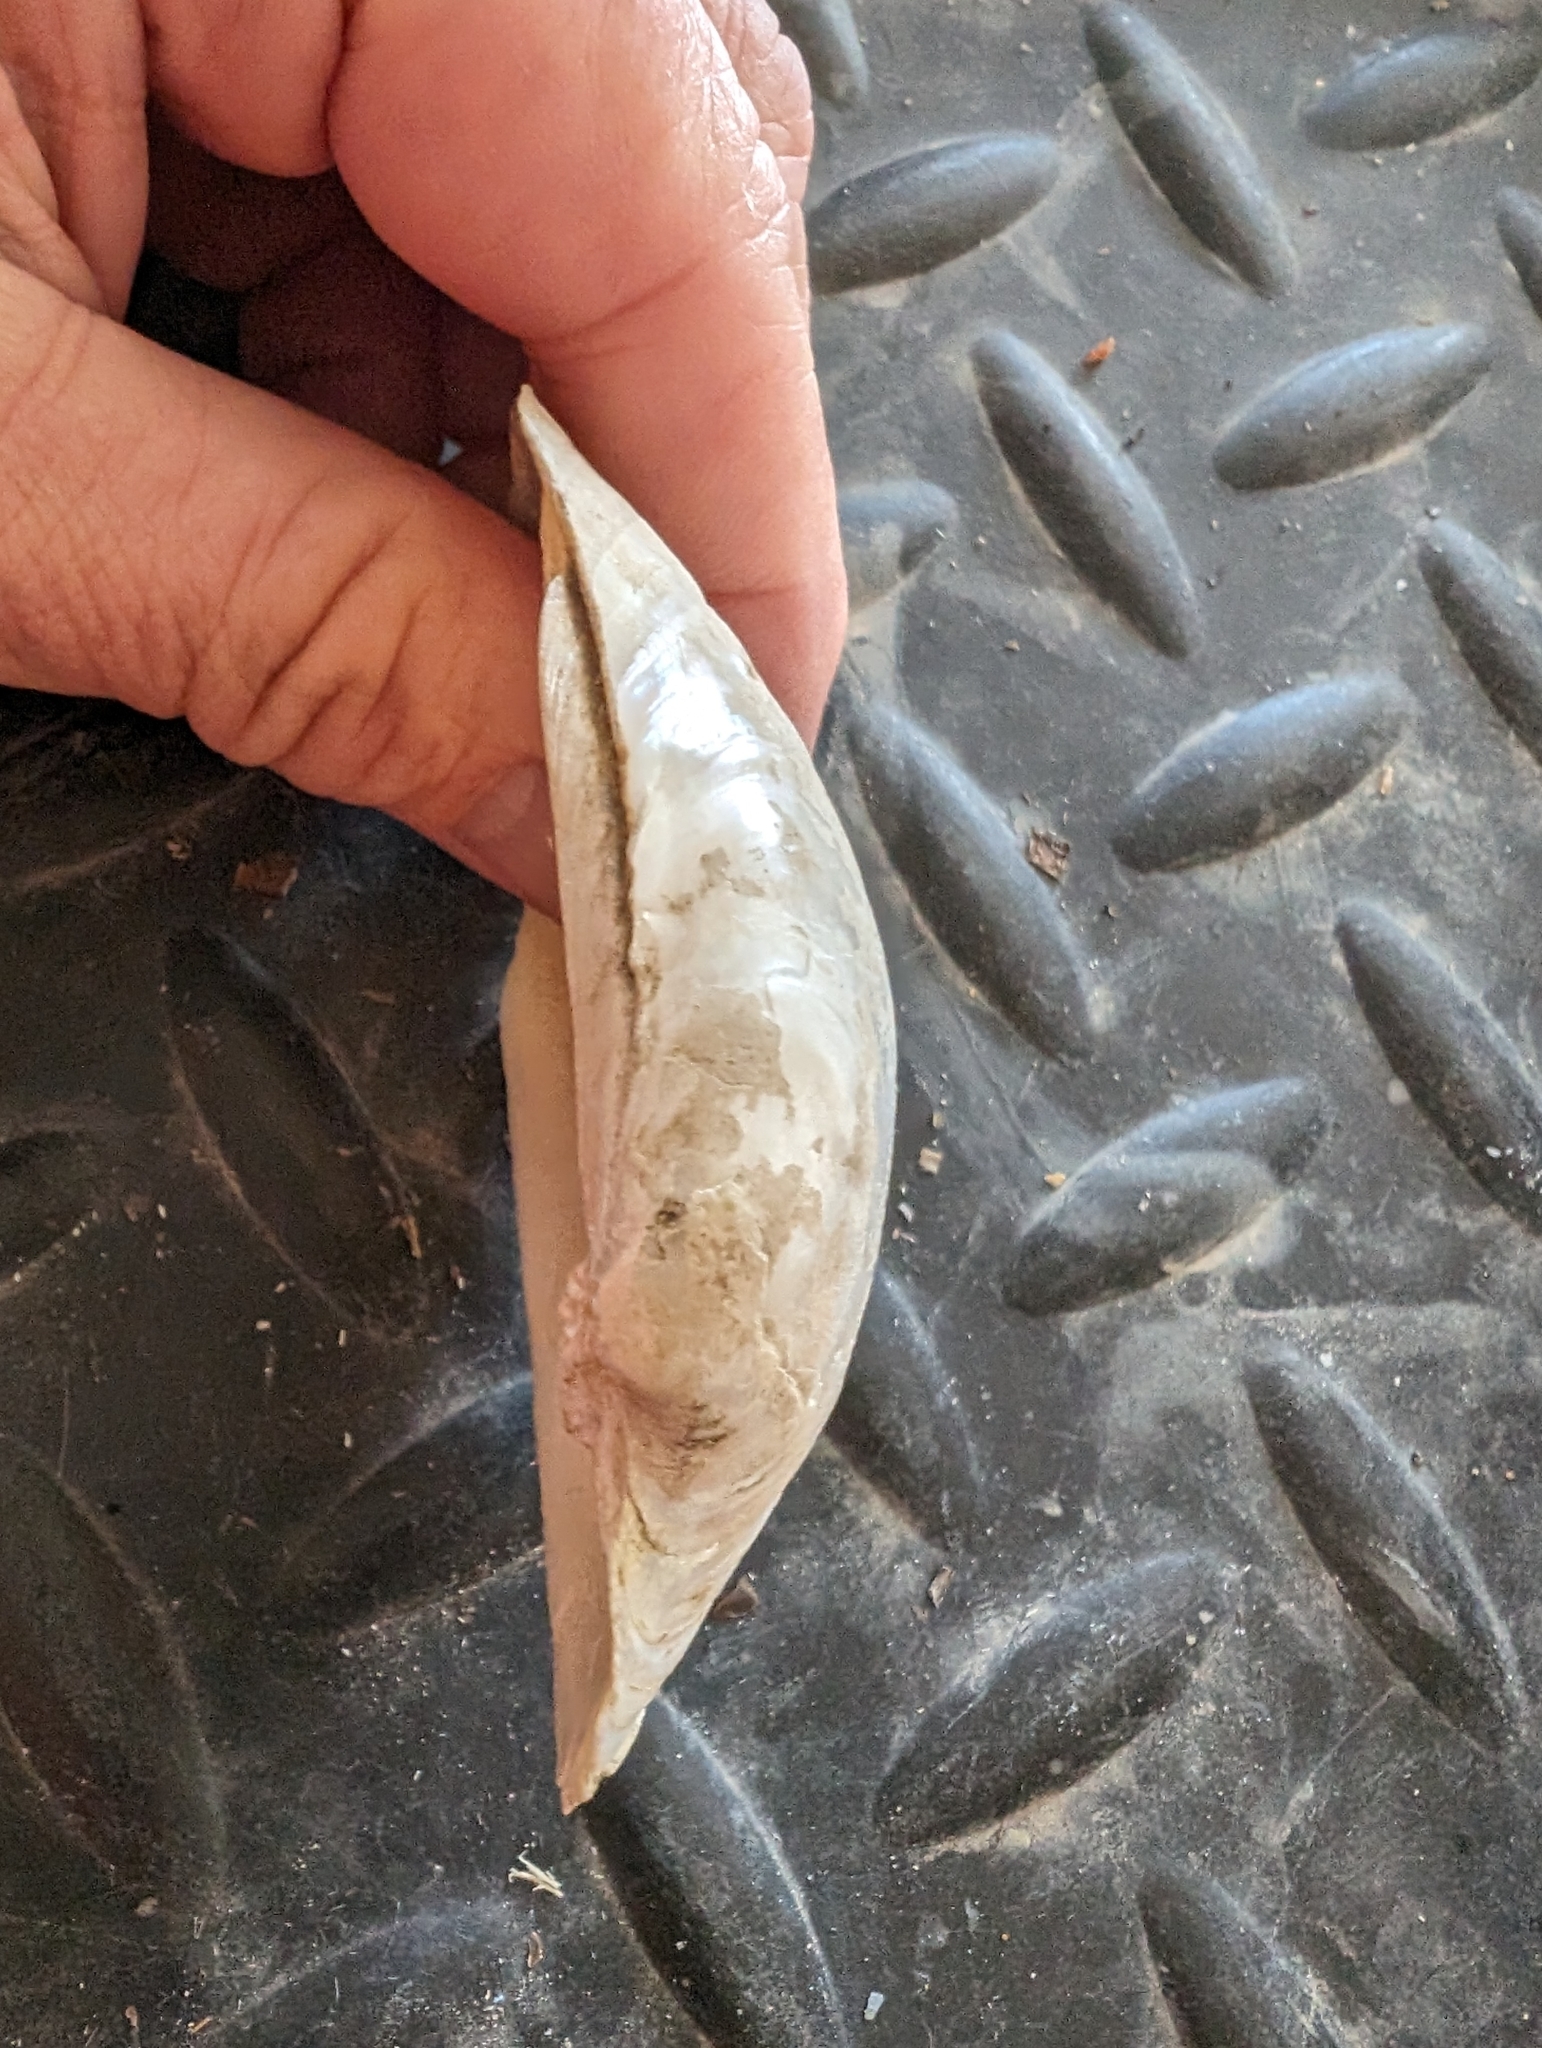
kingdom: Animalia
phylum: Mollusca
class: Bivalvia
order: Unionida
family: Unionidae
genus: Lampsilis
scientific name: Lampsilis cardium
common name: Plain pocketbook
